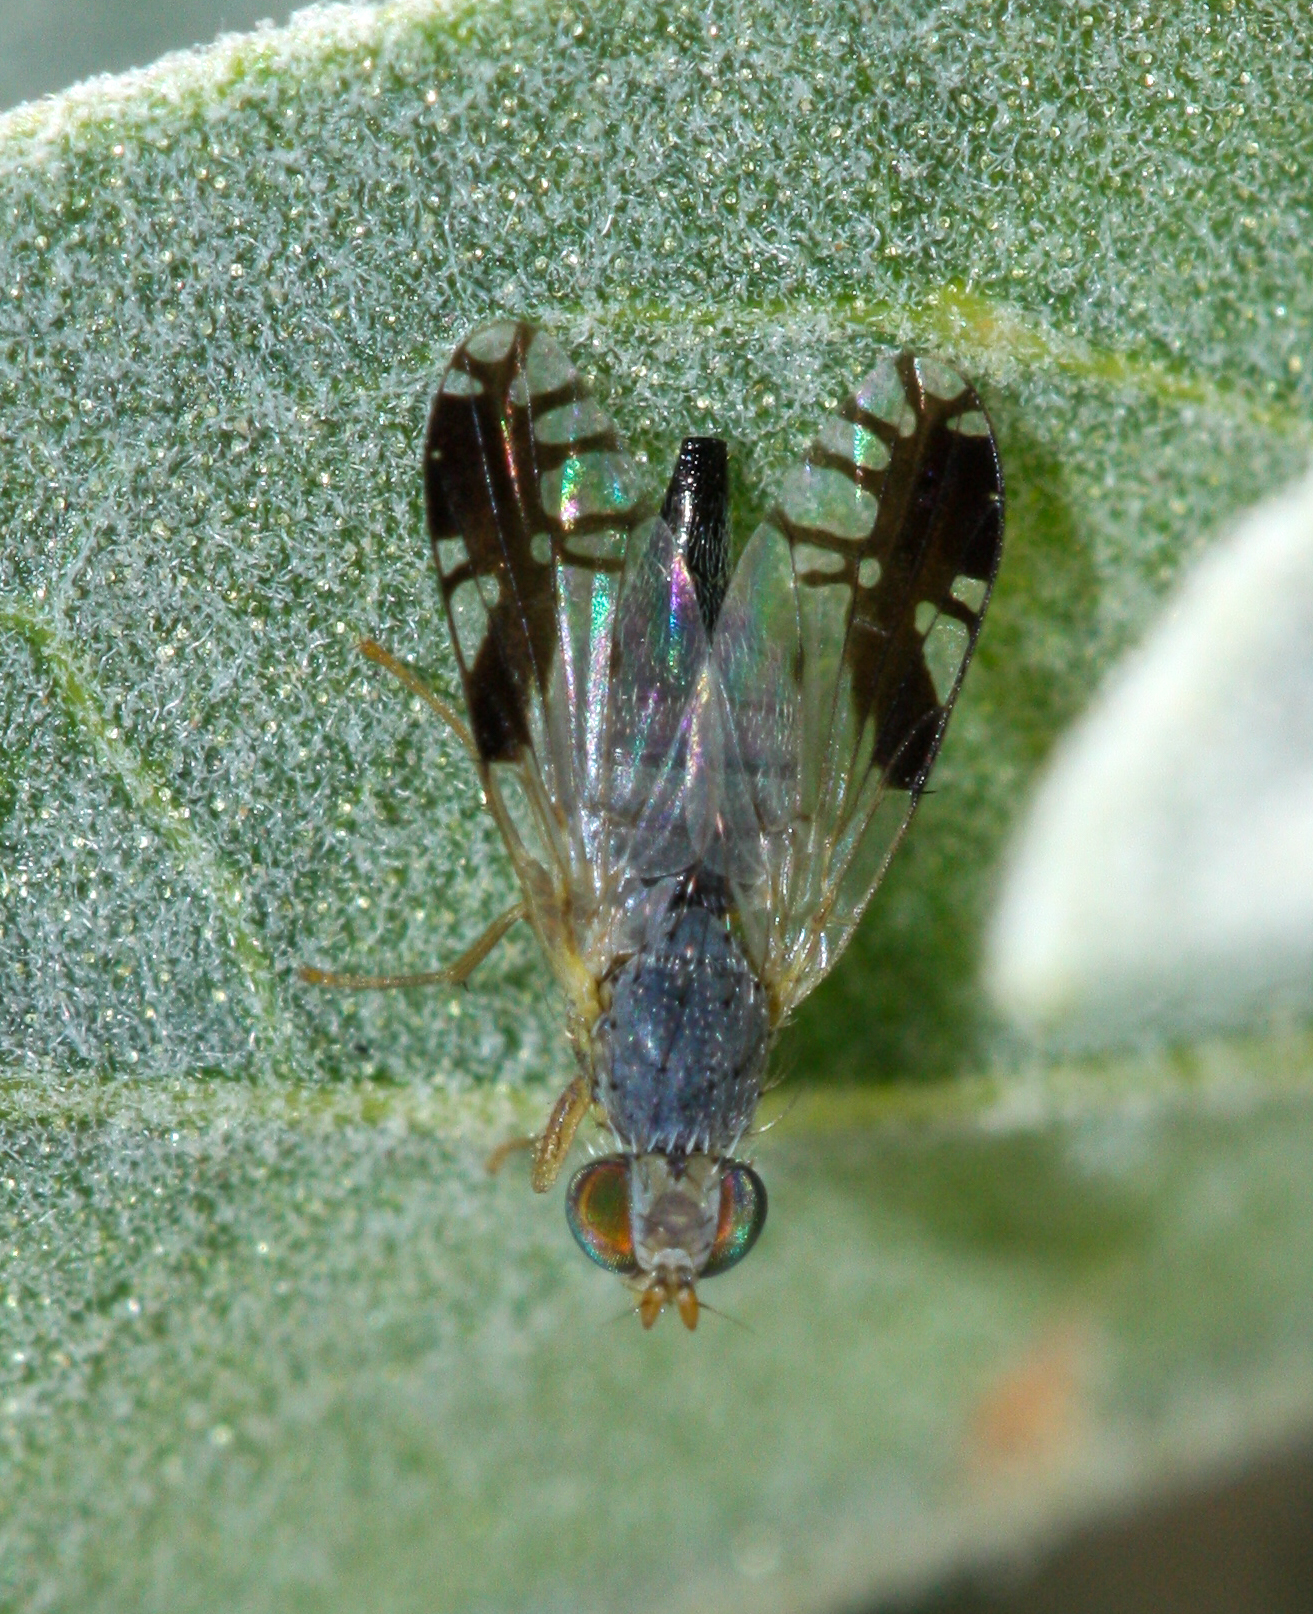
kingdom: Animalia
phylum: Arthropoda
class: Insecta
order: Diptera
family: Tephritidae
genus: Trupanea
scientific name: Trupanea nigricornis
